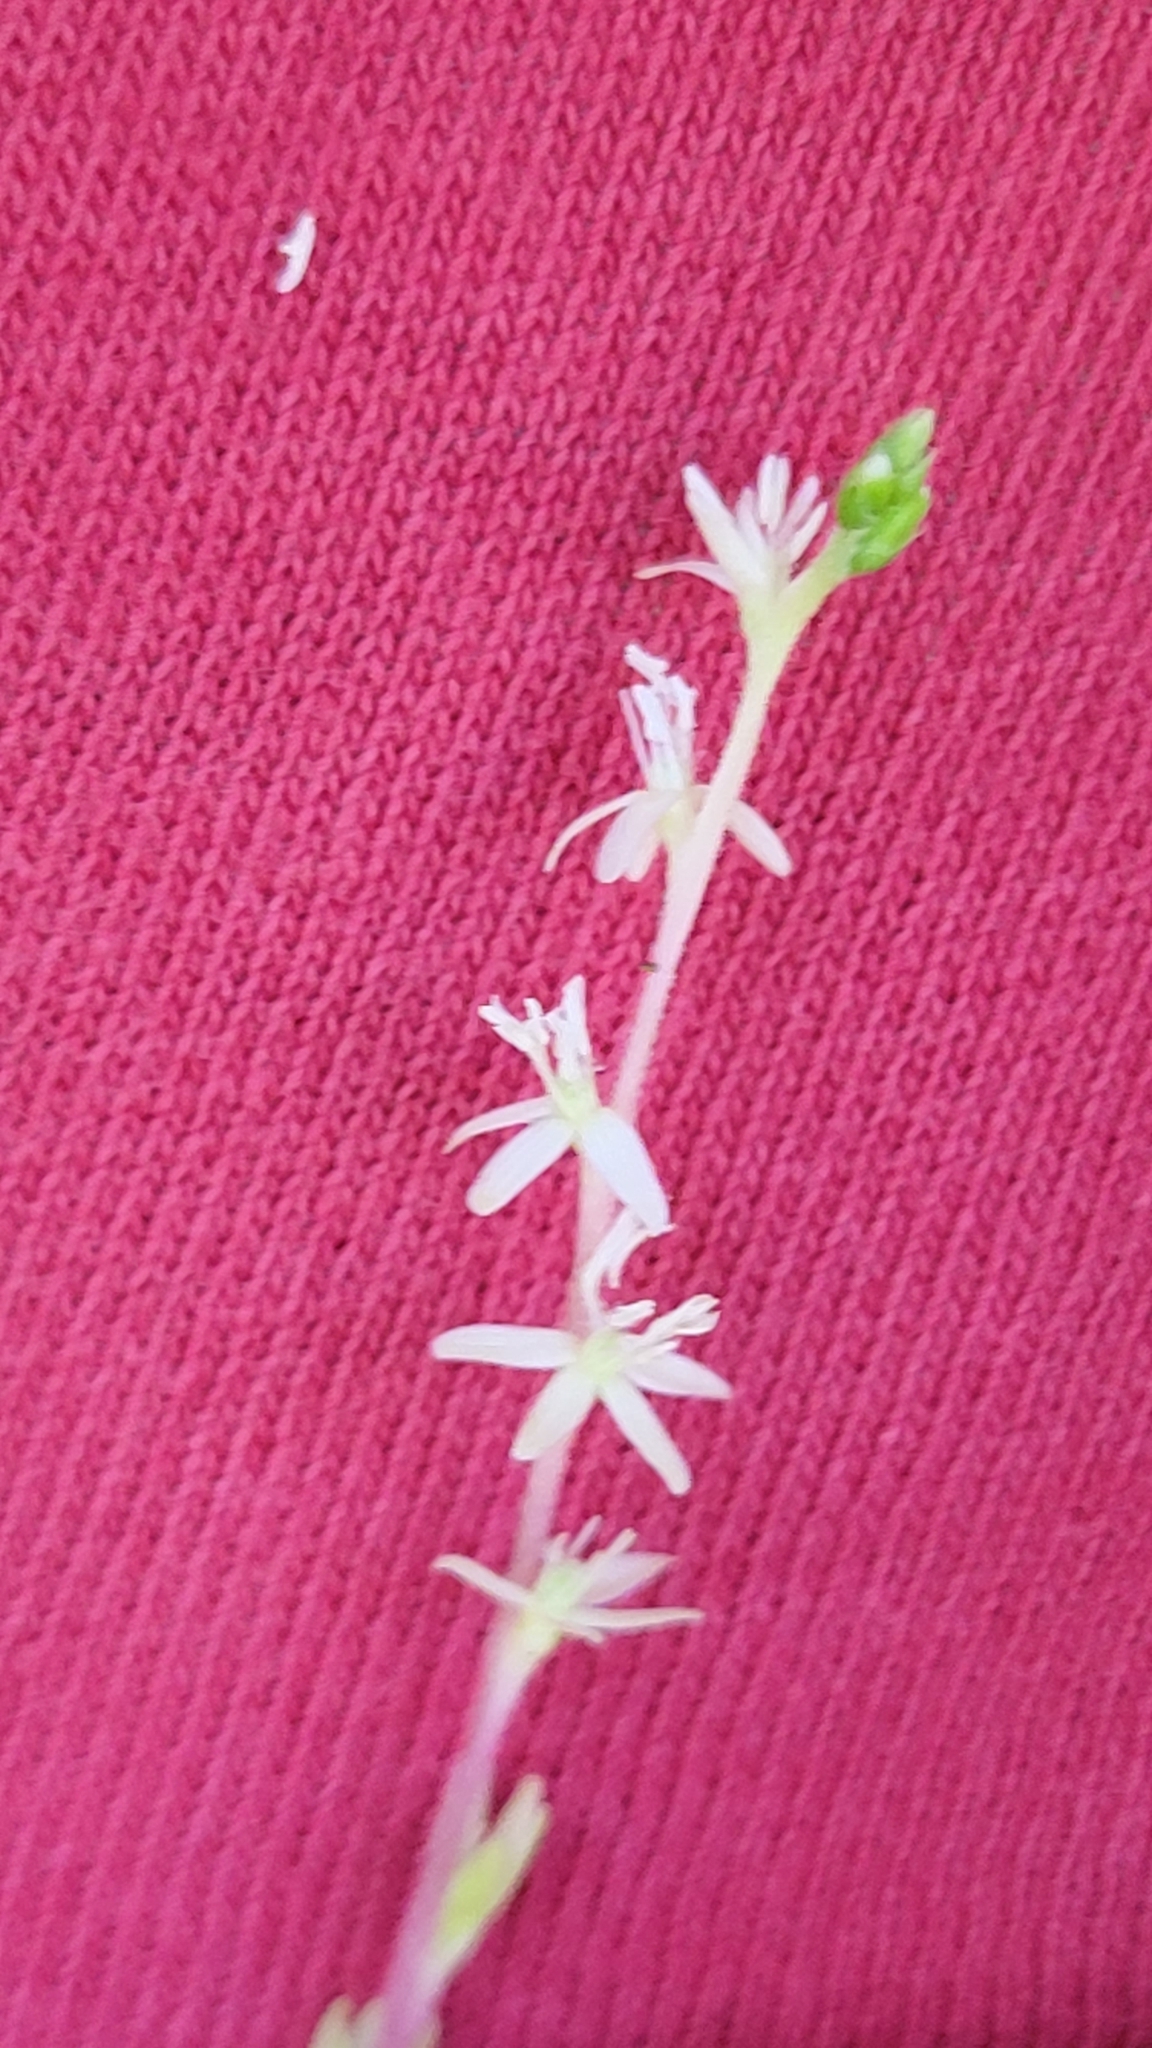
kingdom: Plantae
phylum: Tracheophyta
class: Magnoliopsida
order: Caryophyllales
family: Phytolaccaceae
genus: Petiveria
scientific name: Petiveria alliacea
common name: Garlicweed
